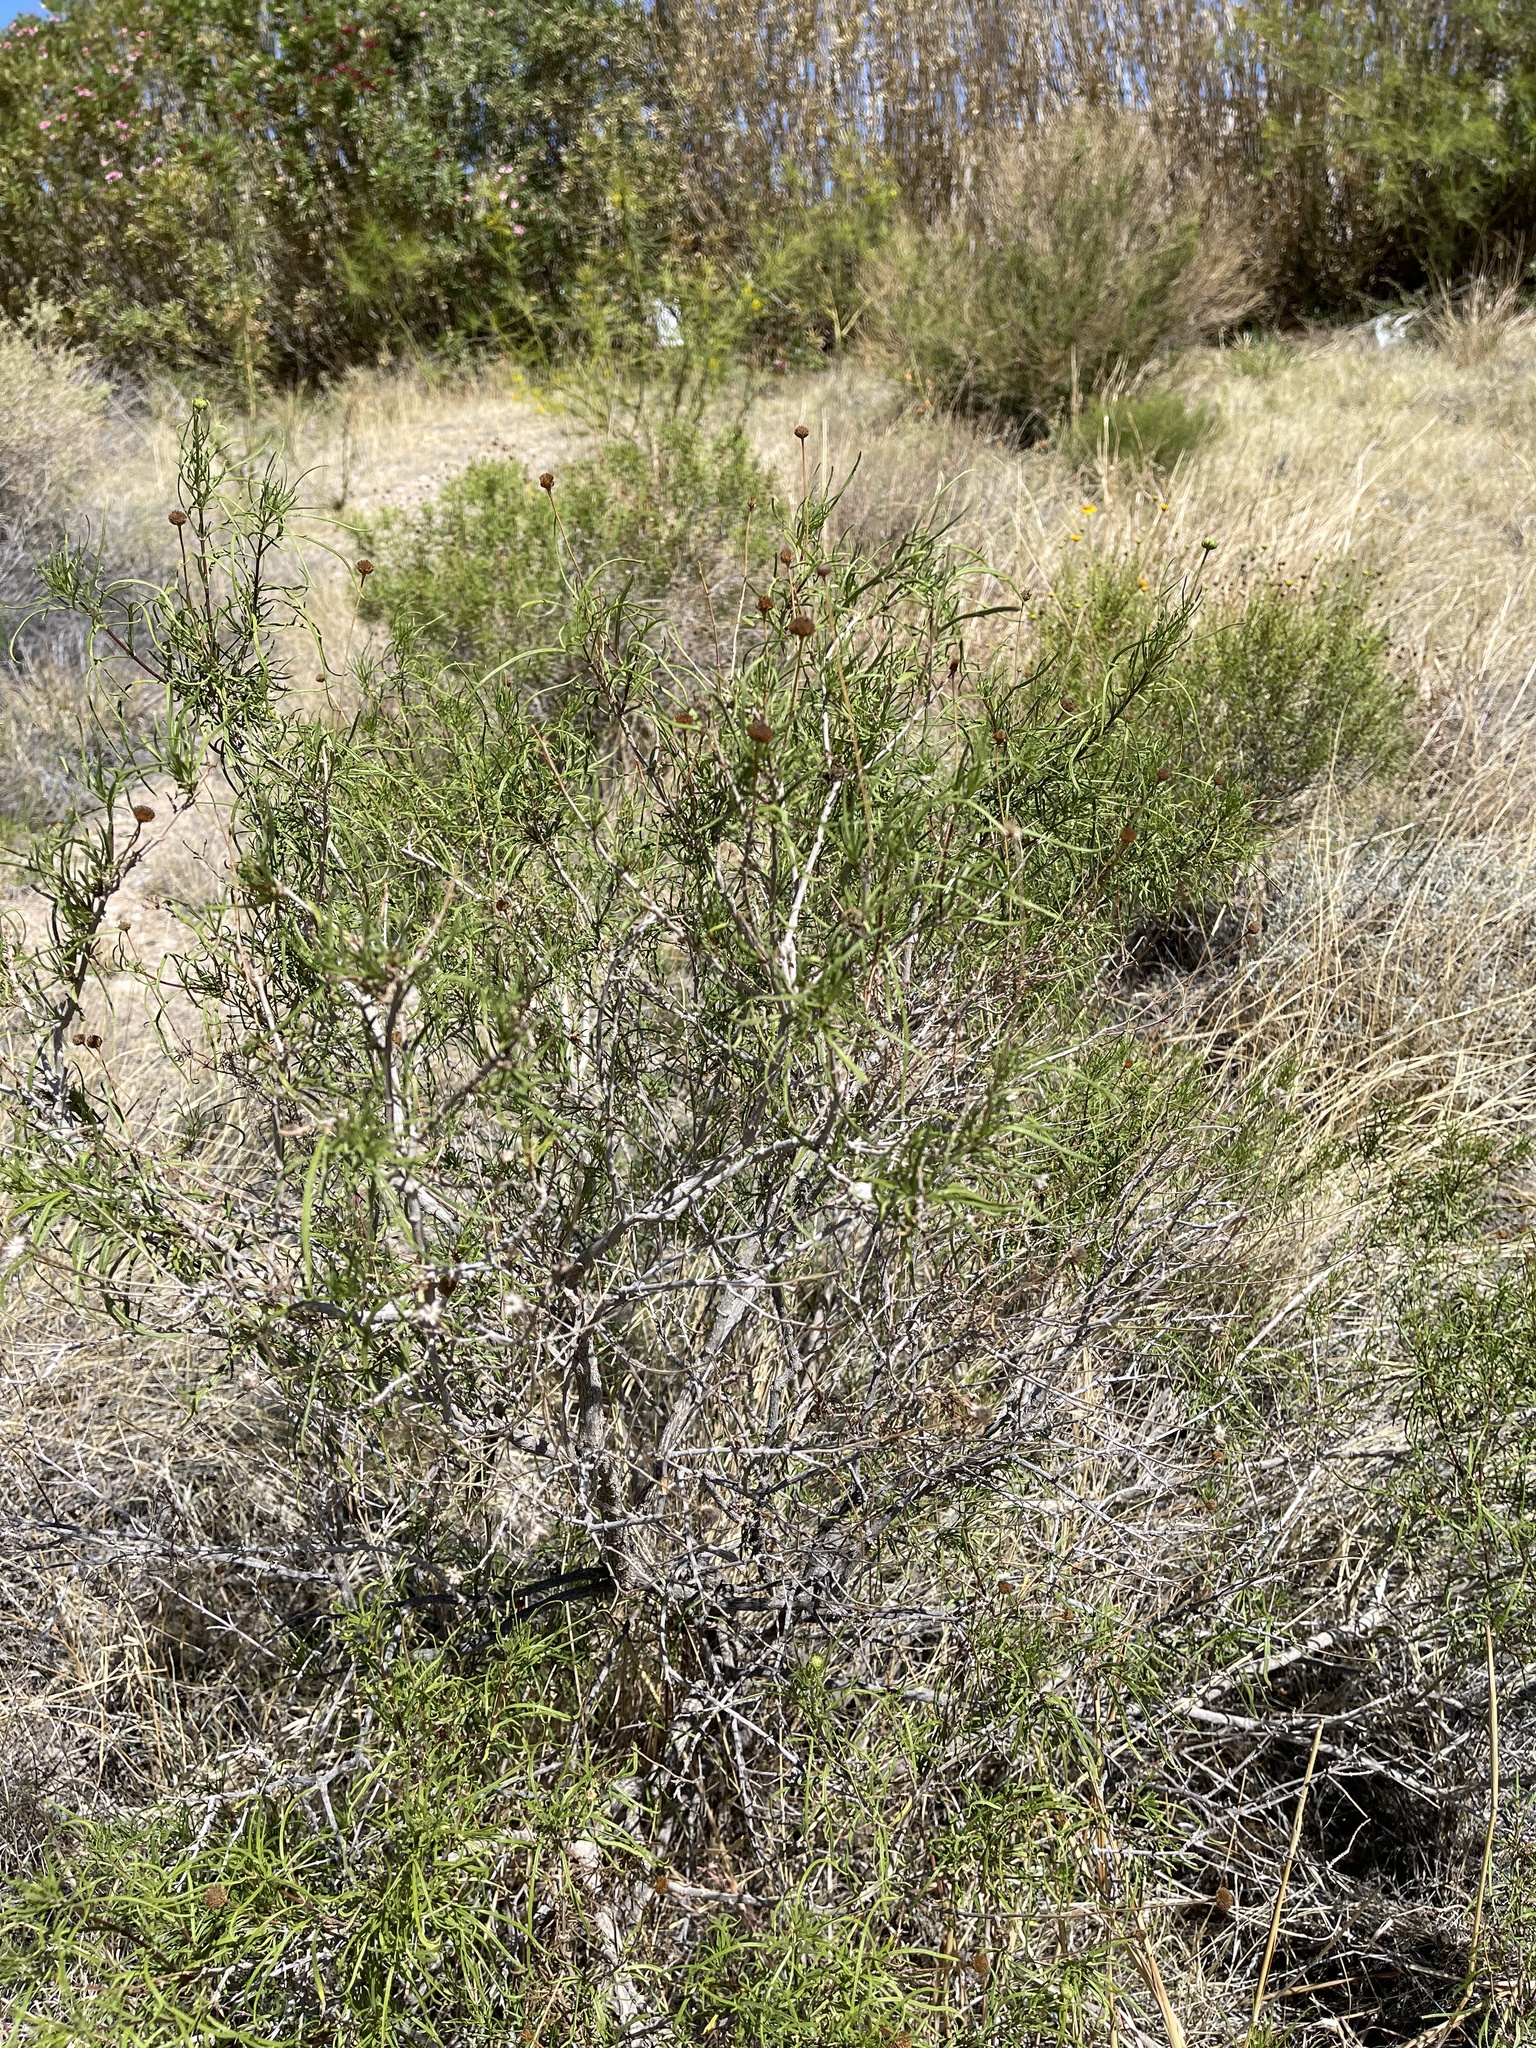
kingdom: Plantae
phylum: Tracheophyta
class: Magnoliopsida
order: Asterales
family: Asteraceae
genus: Sidneya
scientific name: Sidneya tenuifolia
